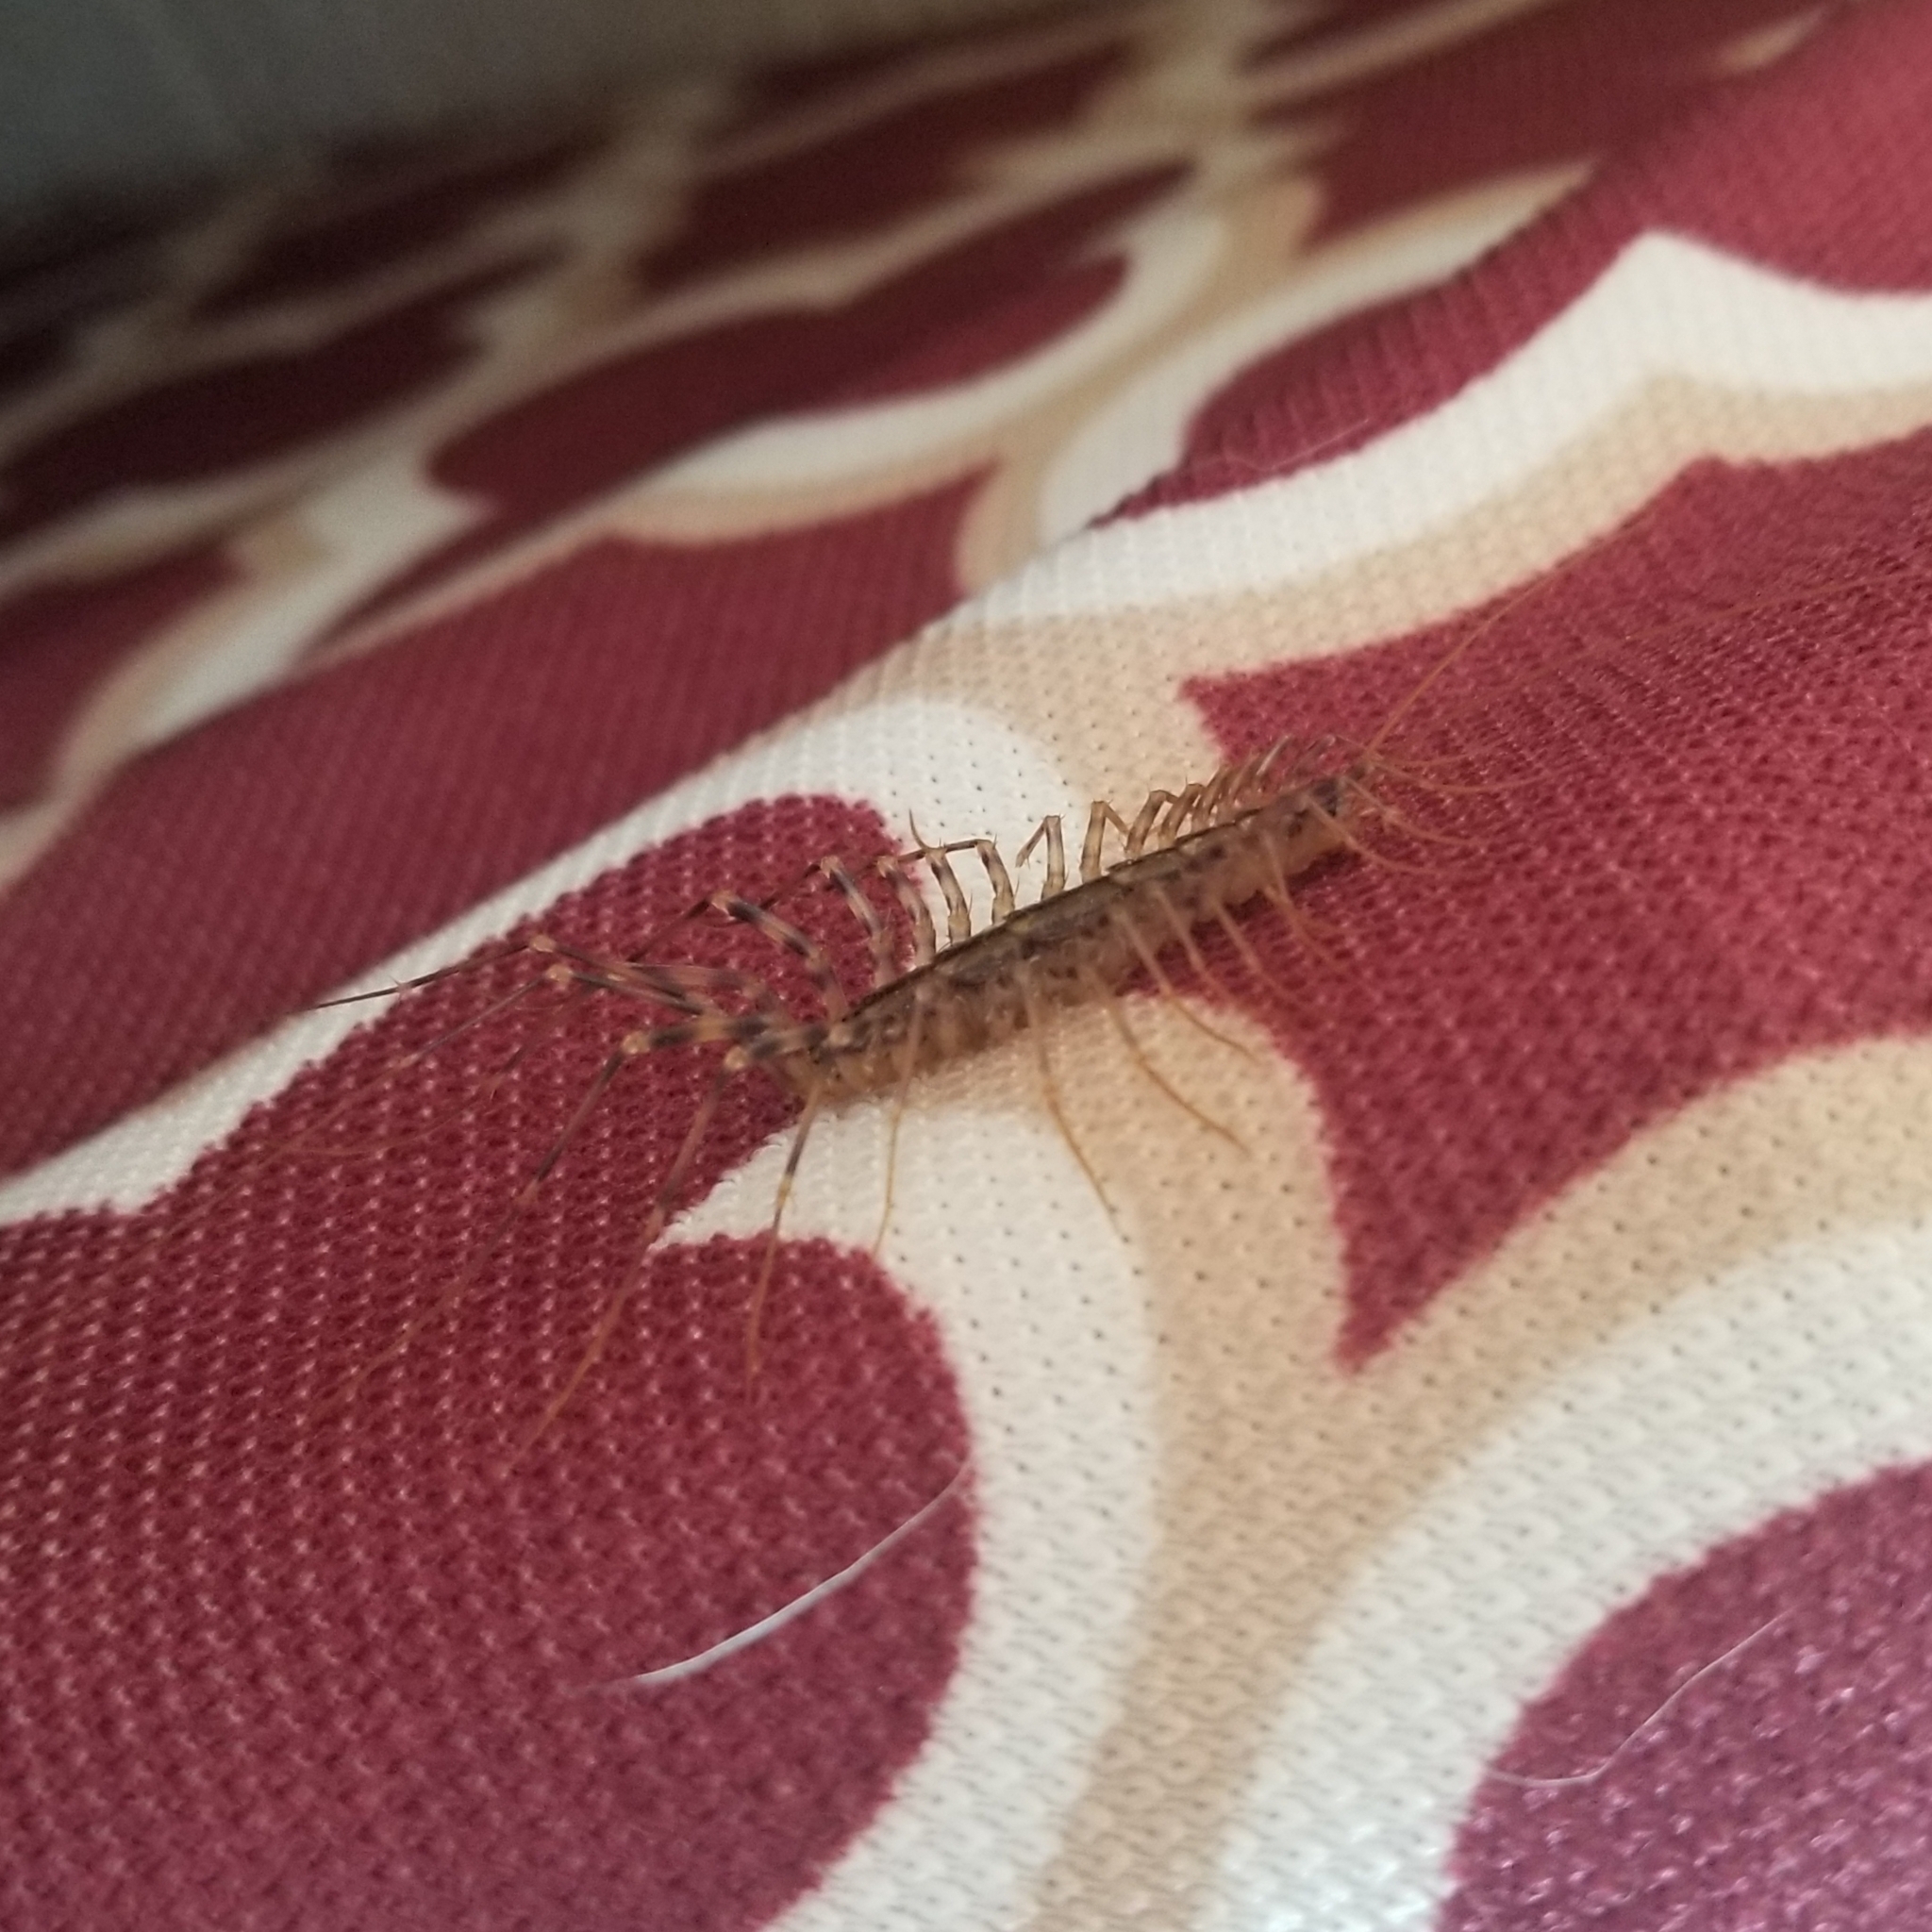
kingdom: Animalia
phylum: Arthropoda
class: Chilopoda
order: Scutigeromorpha
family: Scutigeridae
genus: Scutigera
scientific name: Scutigera coleoptrata
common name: House centipede
